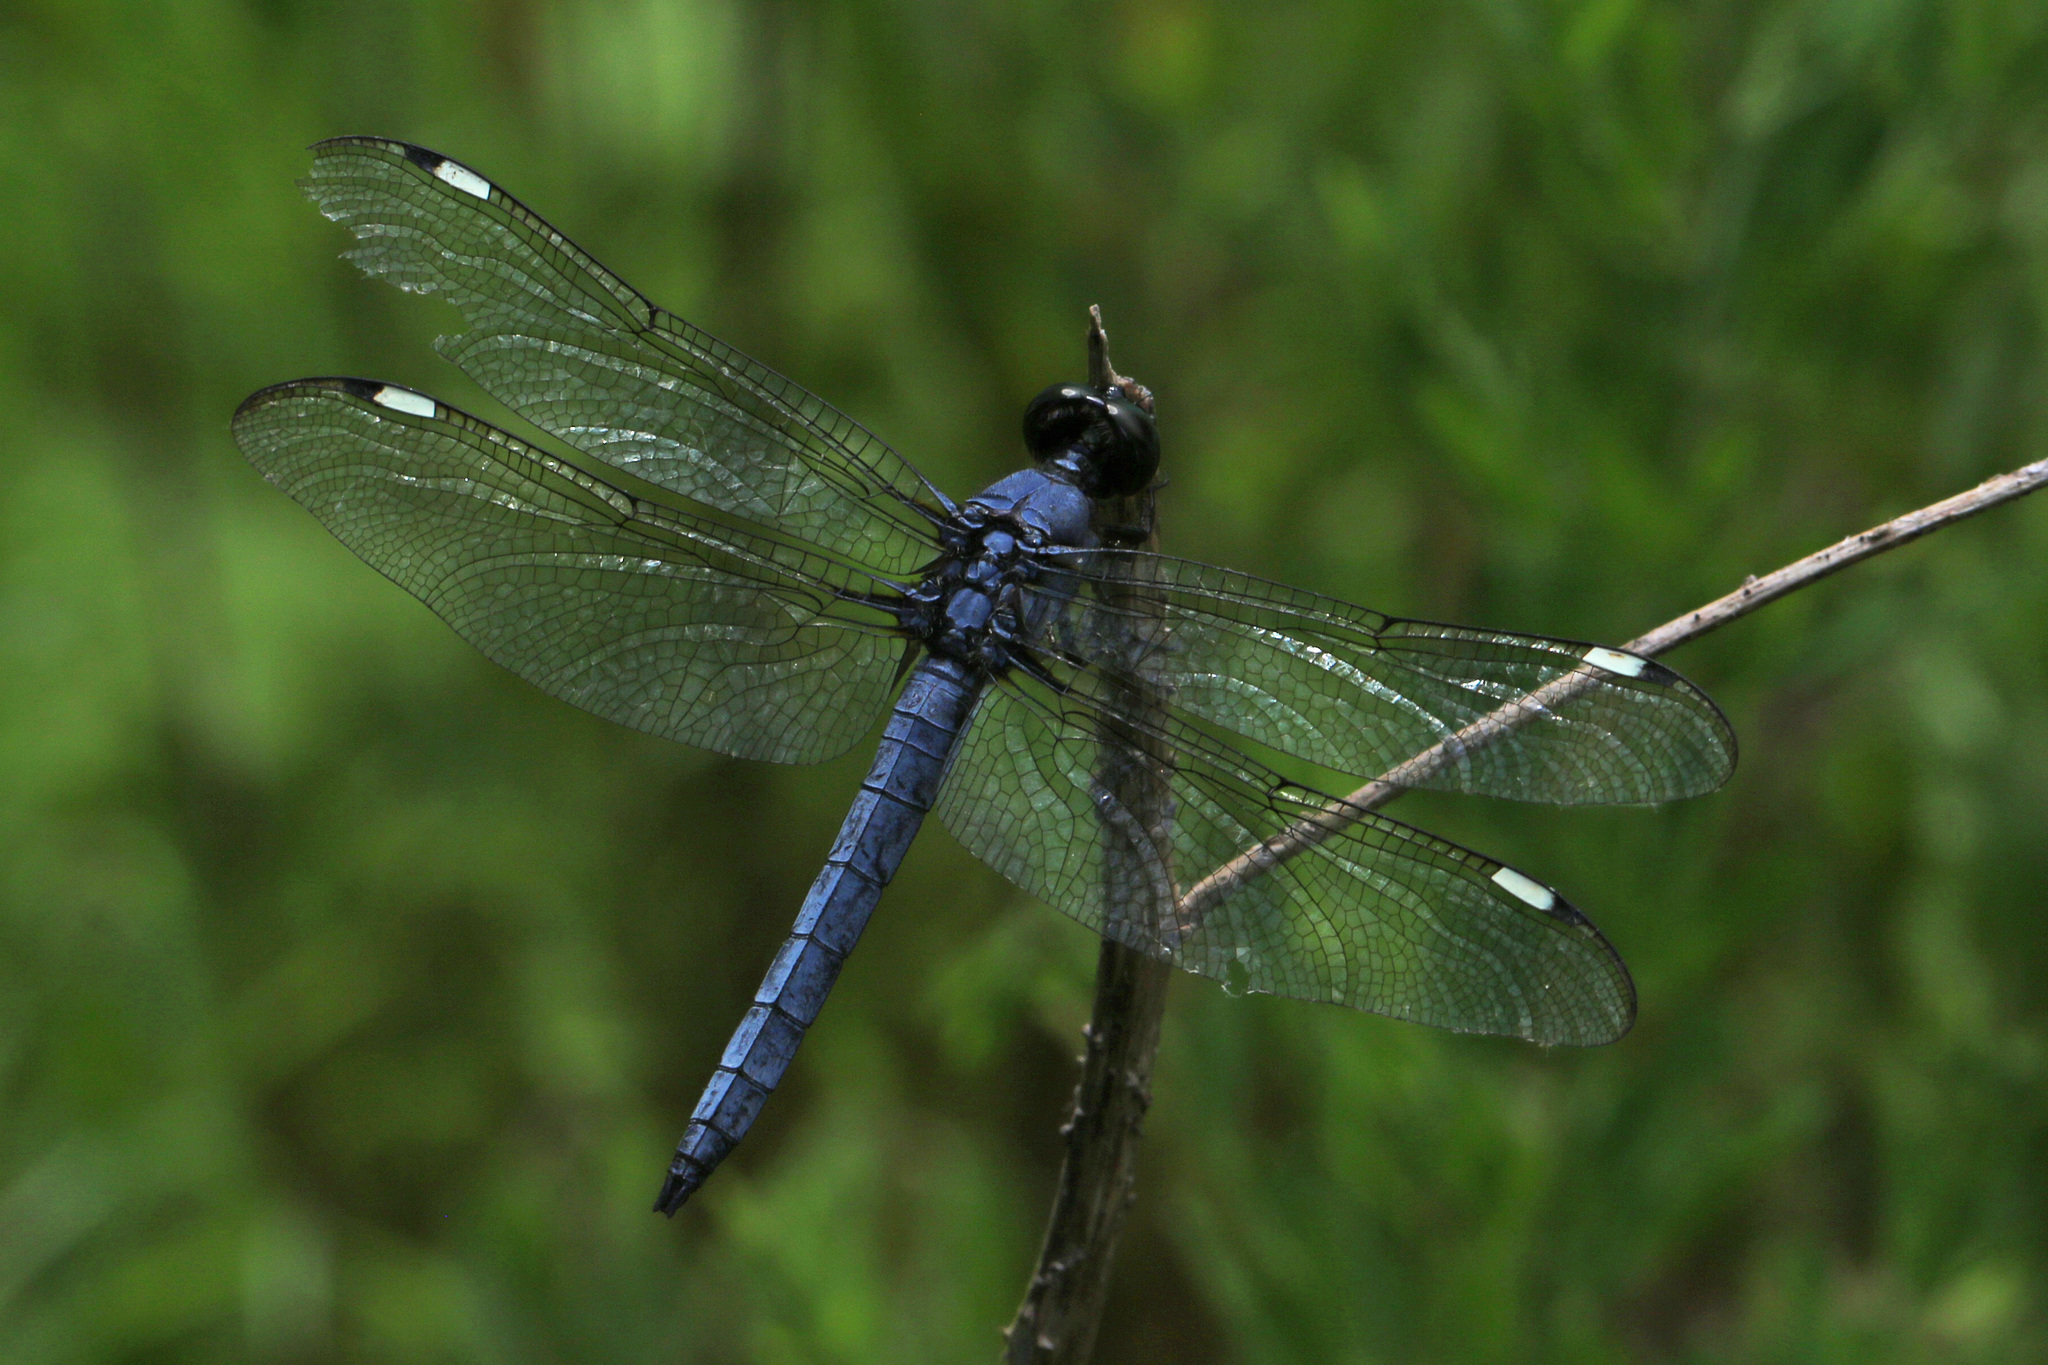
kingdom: Animalia
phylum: Arthropoda
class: Insecta
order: Odonata
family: Libellulidae
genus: Libellula
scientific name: Libellula cyanea
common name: Spangled skimmer
